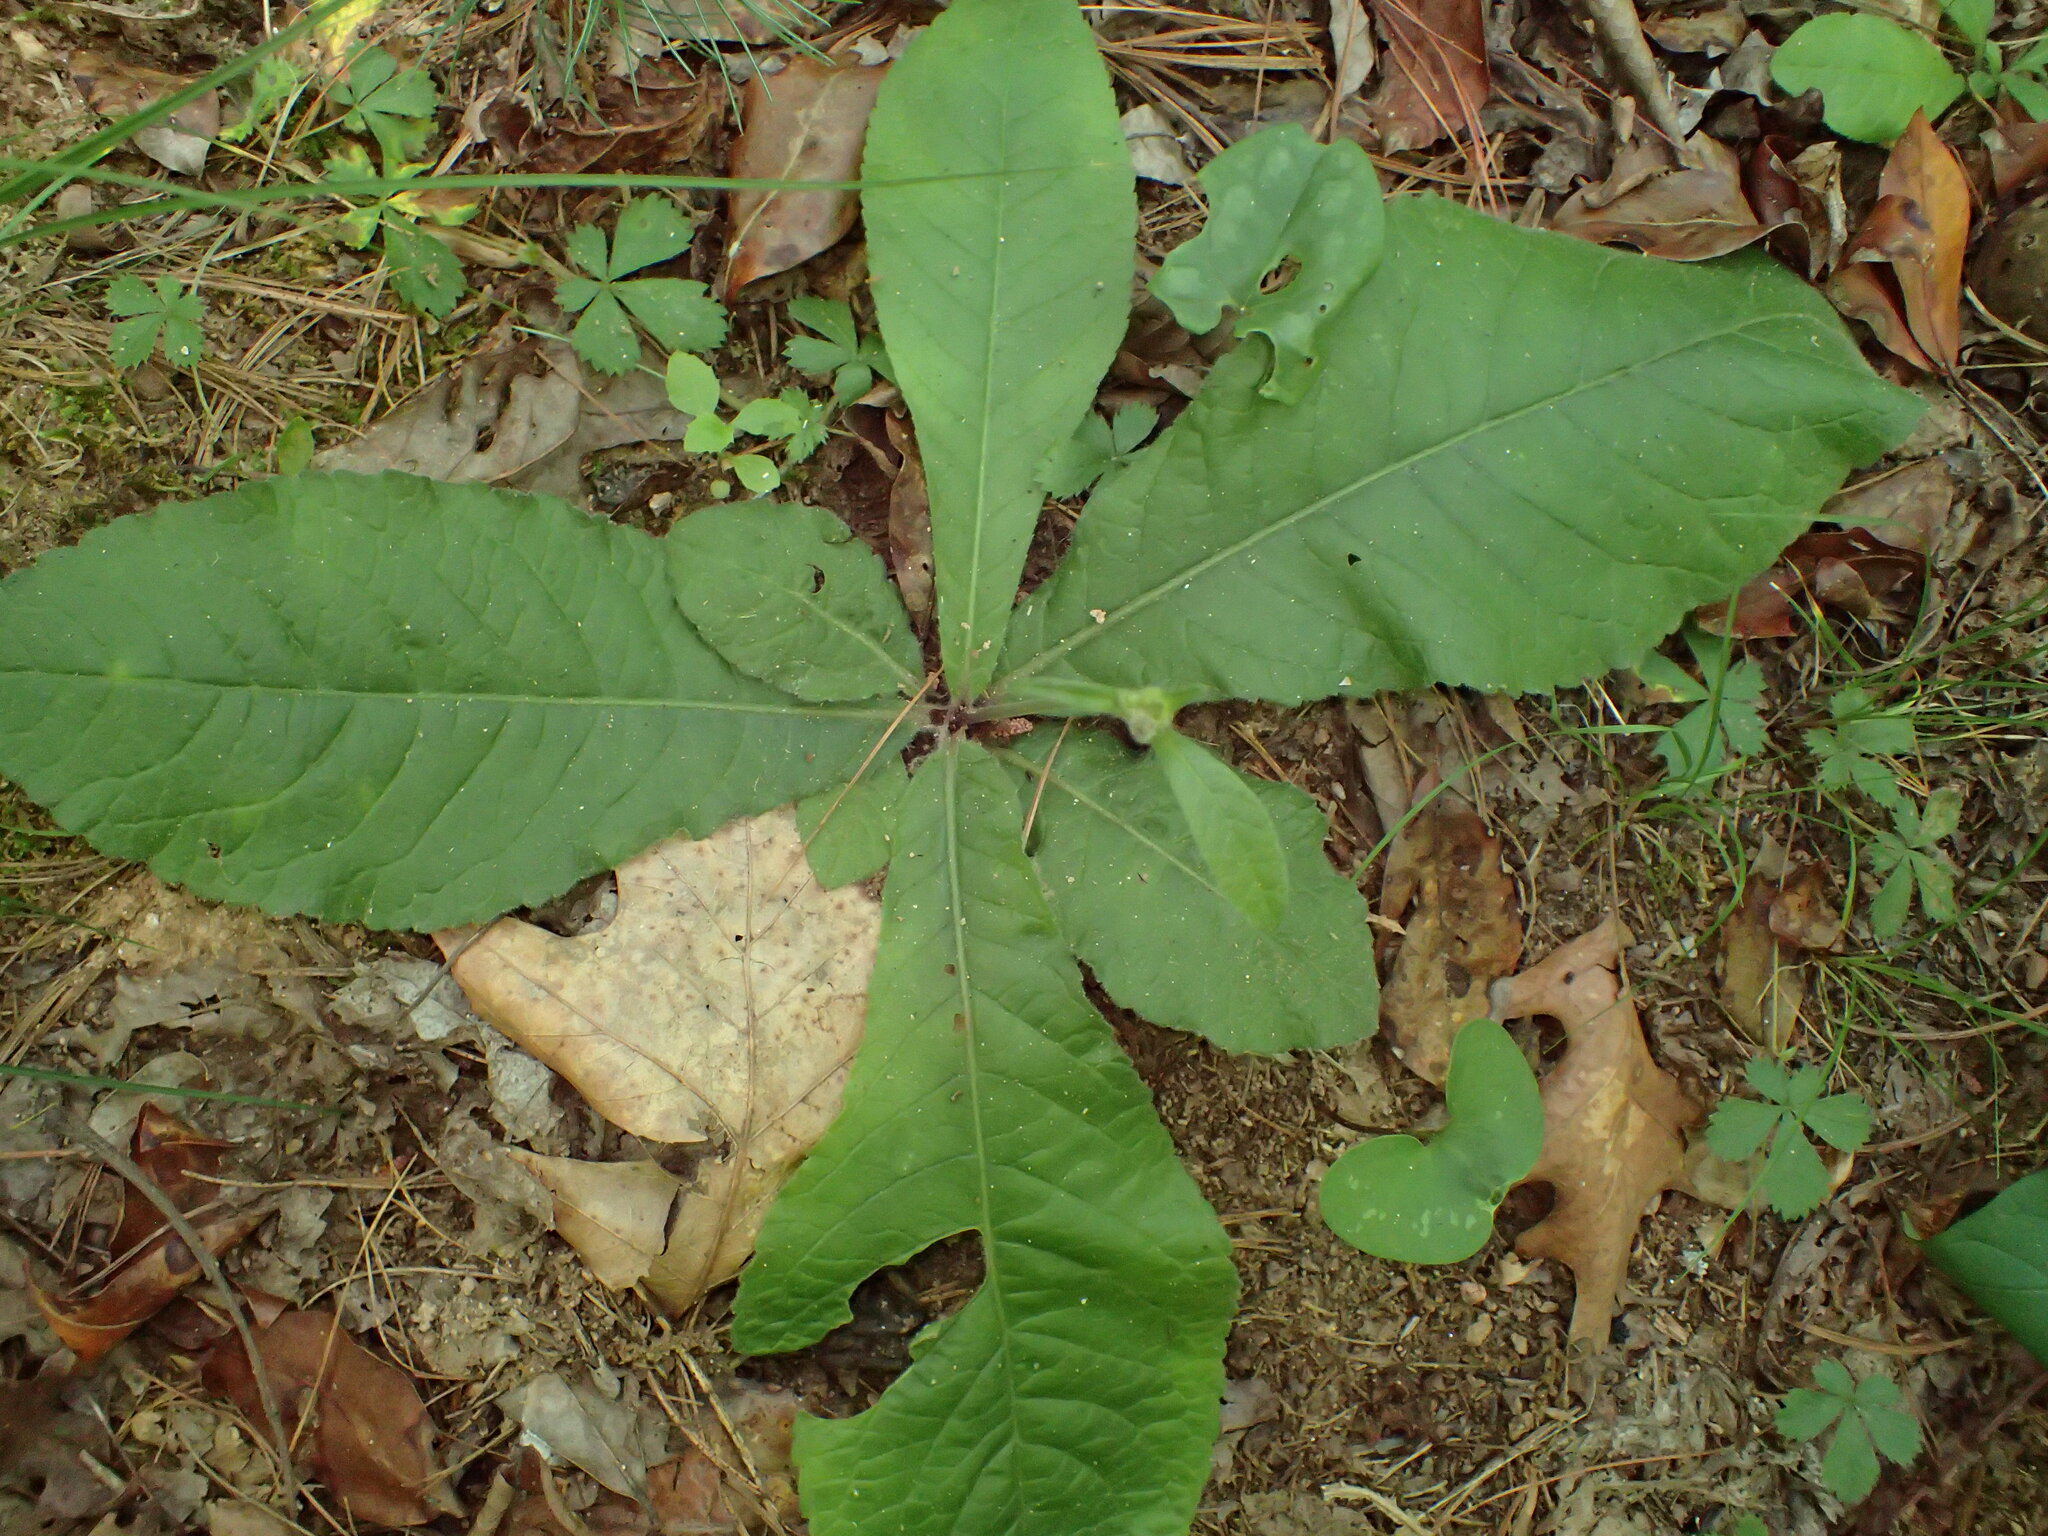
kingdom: Plantae
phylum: Tracheophyta
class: Magnoliopsida
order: Asterales
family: Asteraceae
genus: Elephantopus
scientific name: Elephantopus tomentosus
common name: Tobacco-weed
